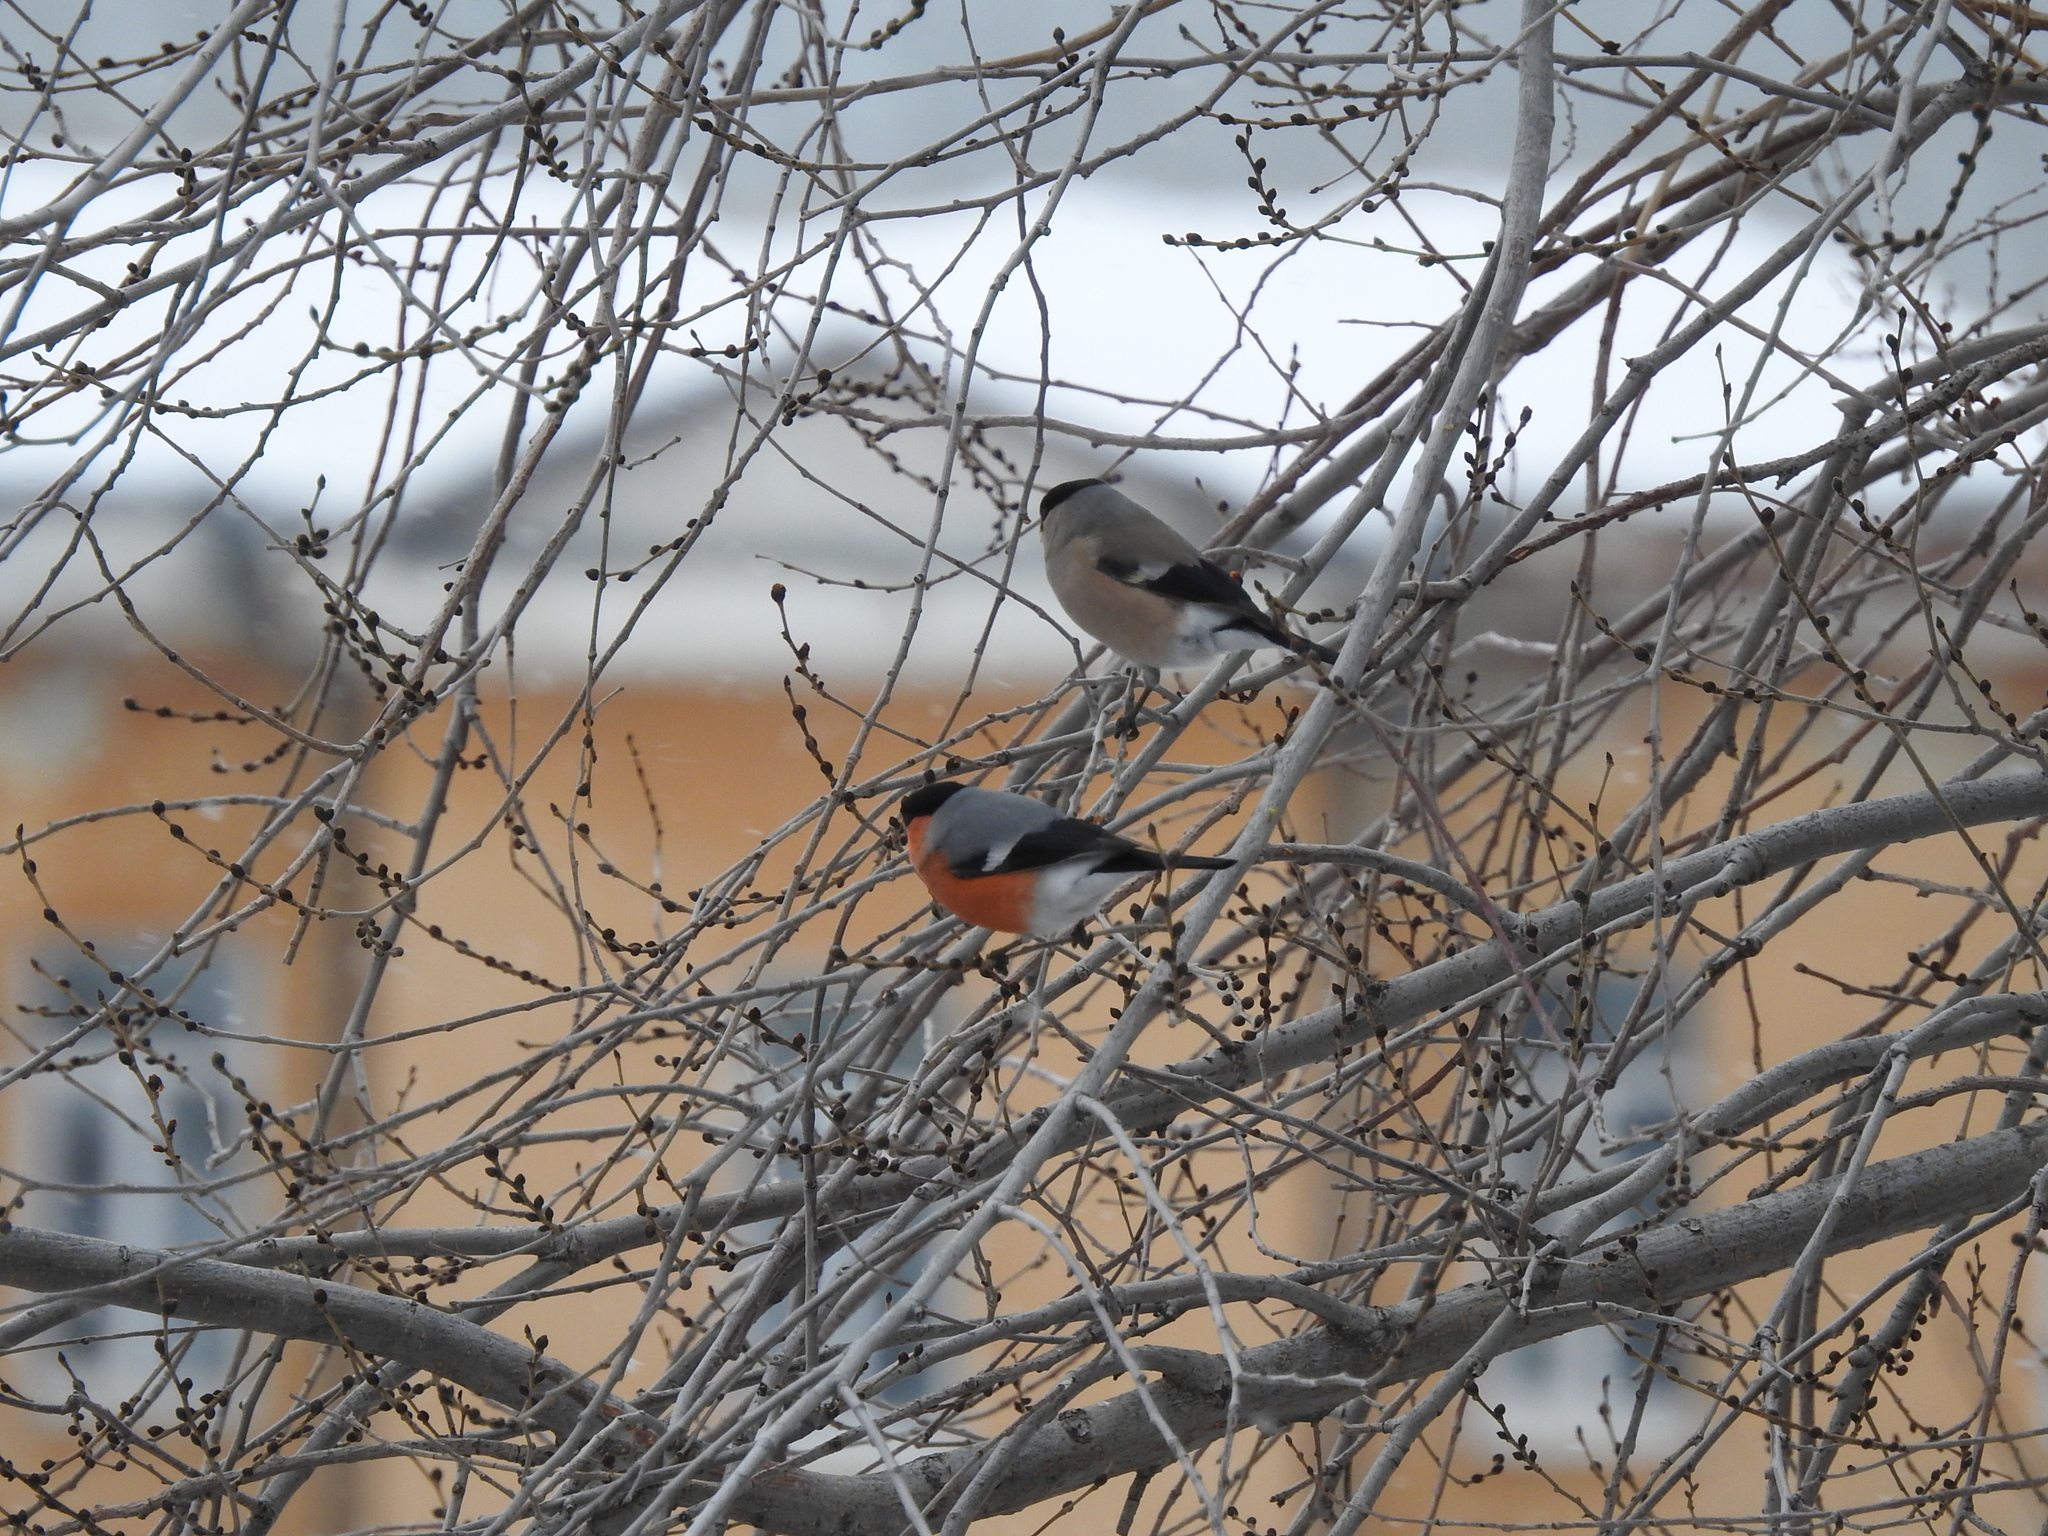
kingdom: Animalia
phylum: Chordata
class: Aves
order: Passeriformes
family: Fringillidae
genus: Pyrrhula
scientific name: Pyrrhula pyrrhula
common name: Eurasian bullfinch
